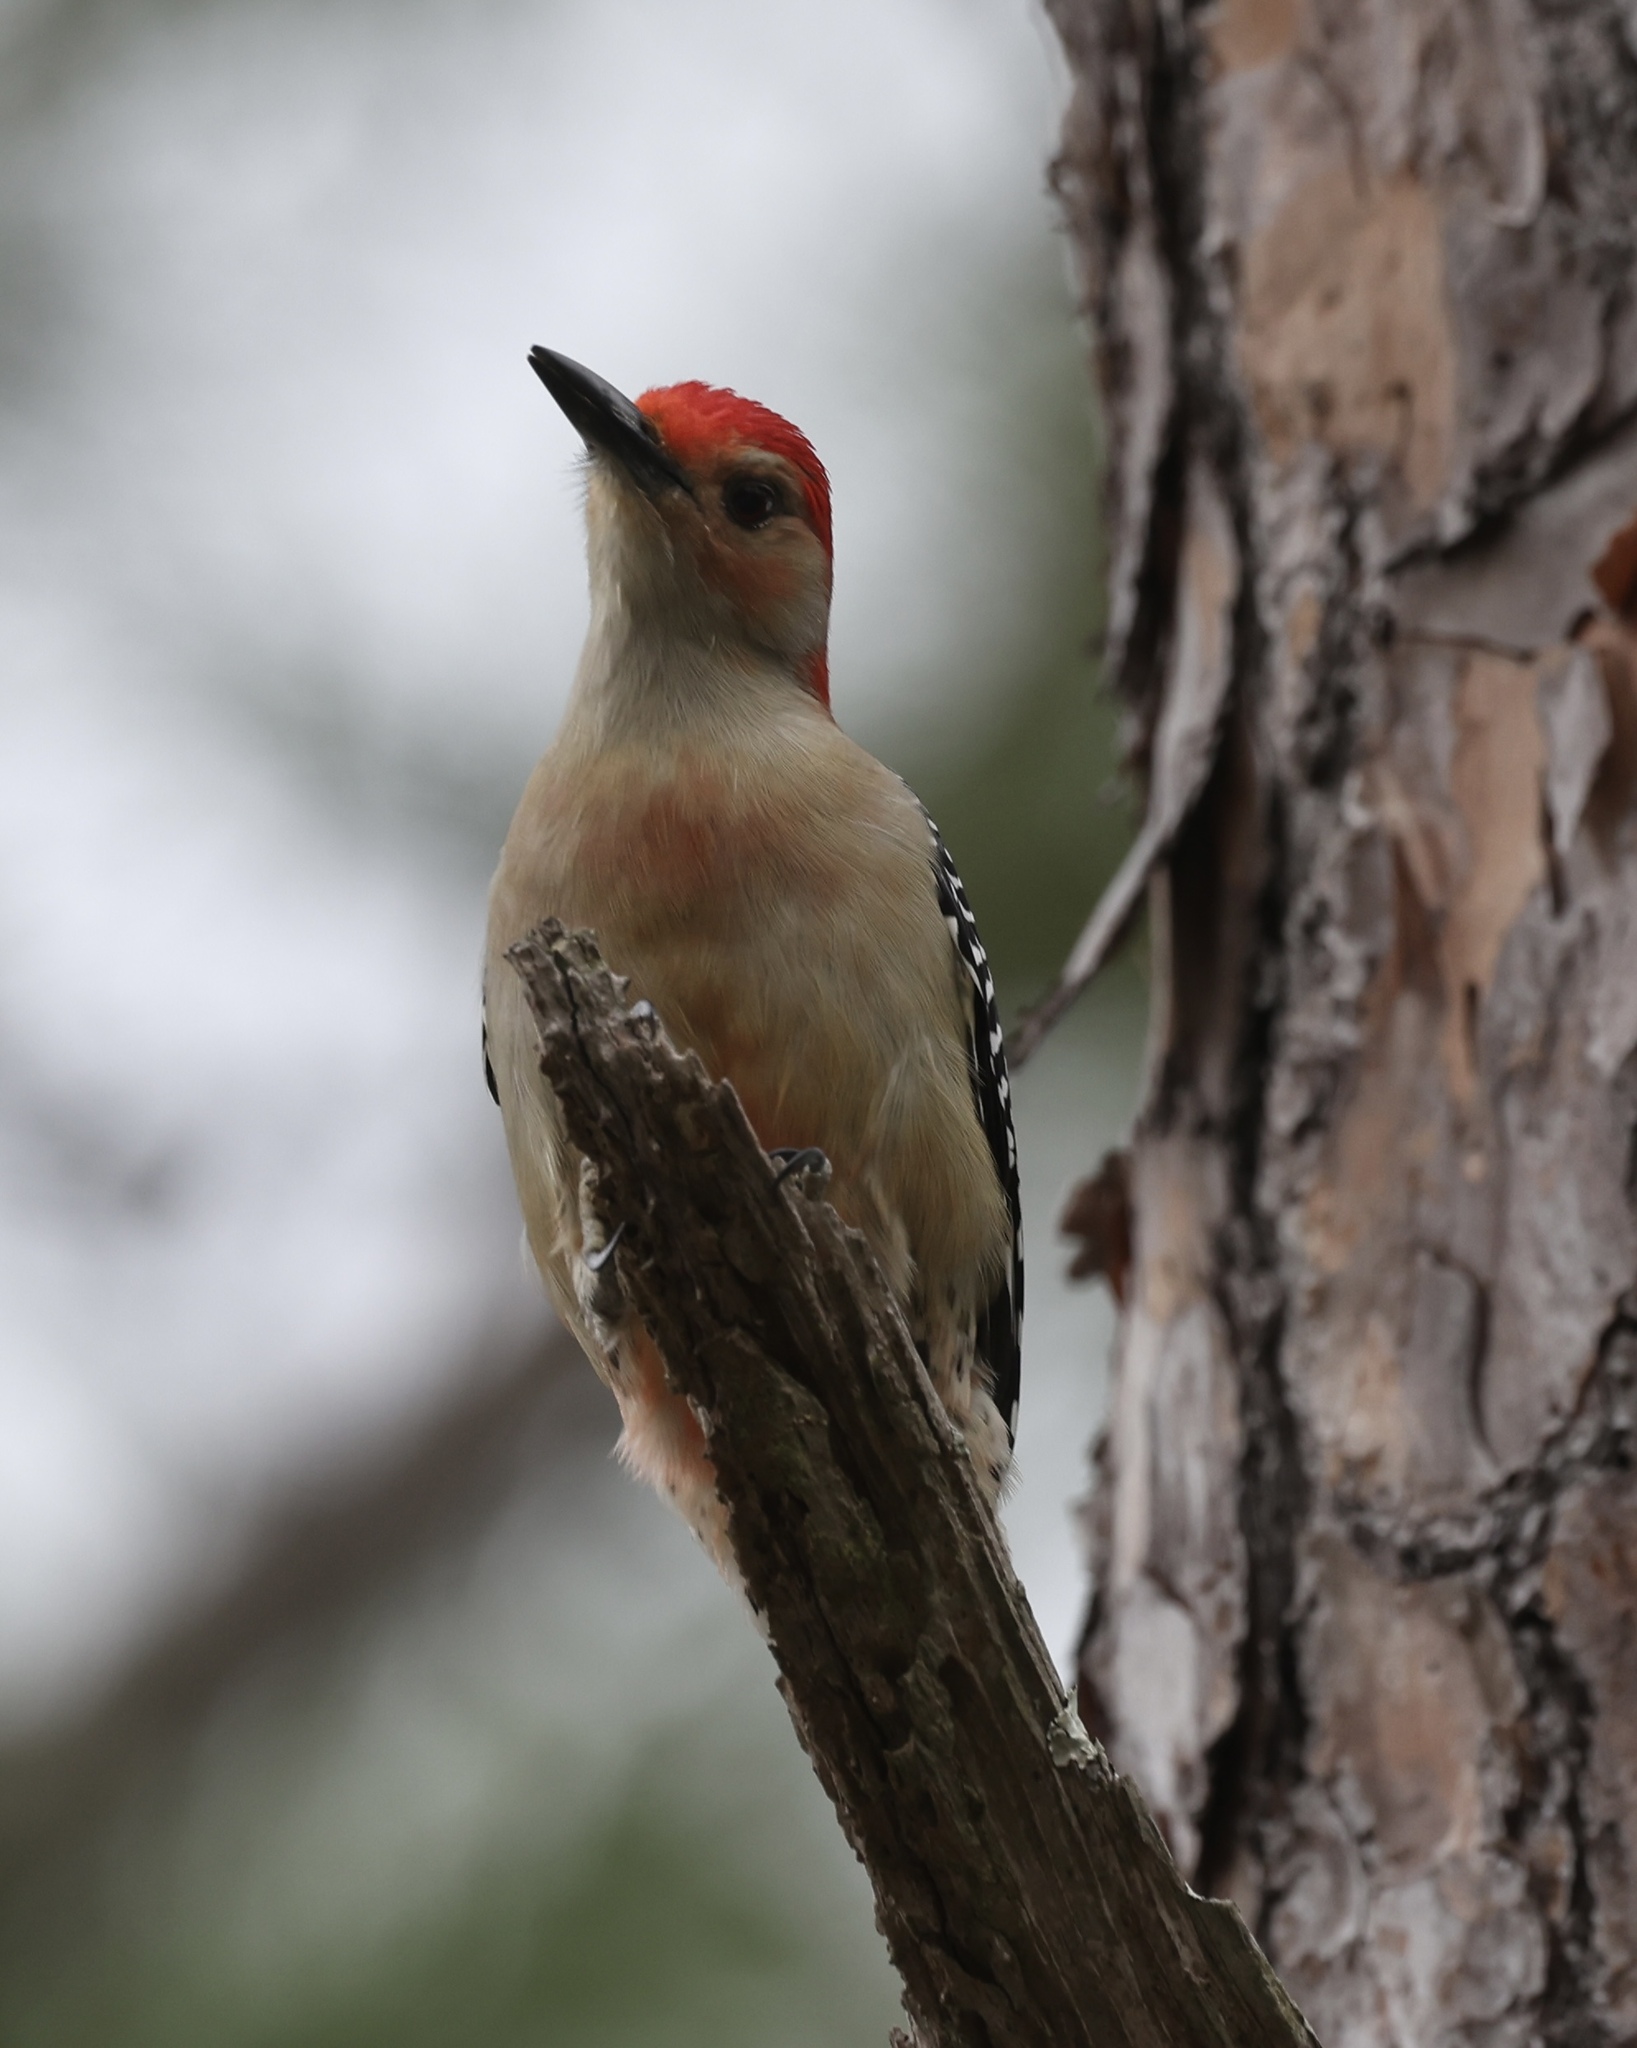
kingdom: Animalia
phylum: Chordata
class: Aves
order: Piciformes
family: Picidae
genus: Melanerpes
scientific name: Melanerpes carolinus
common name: Red-bellied woodpecker
